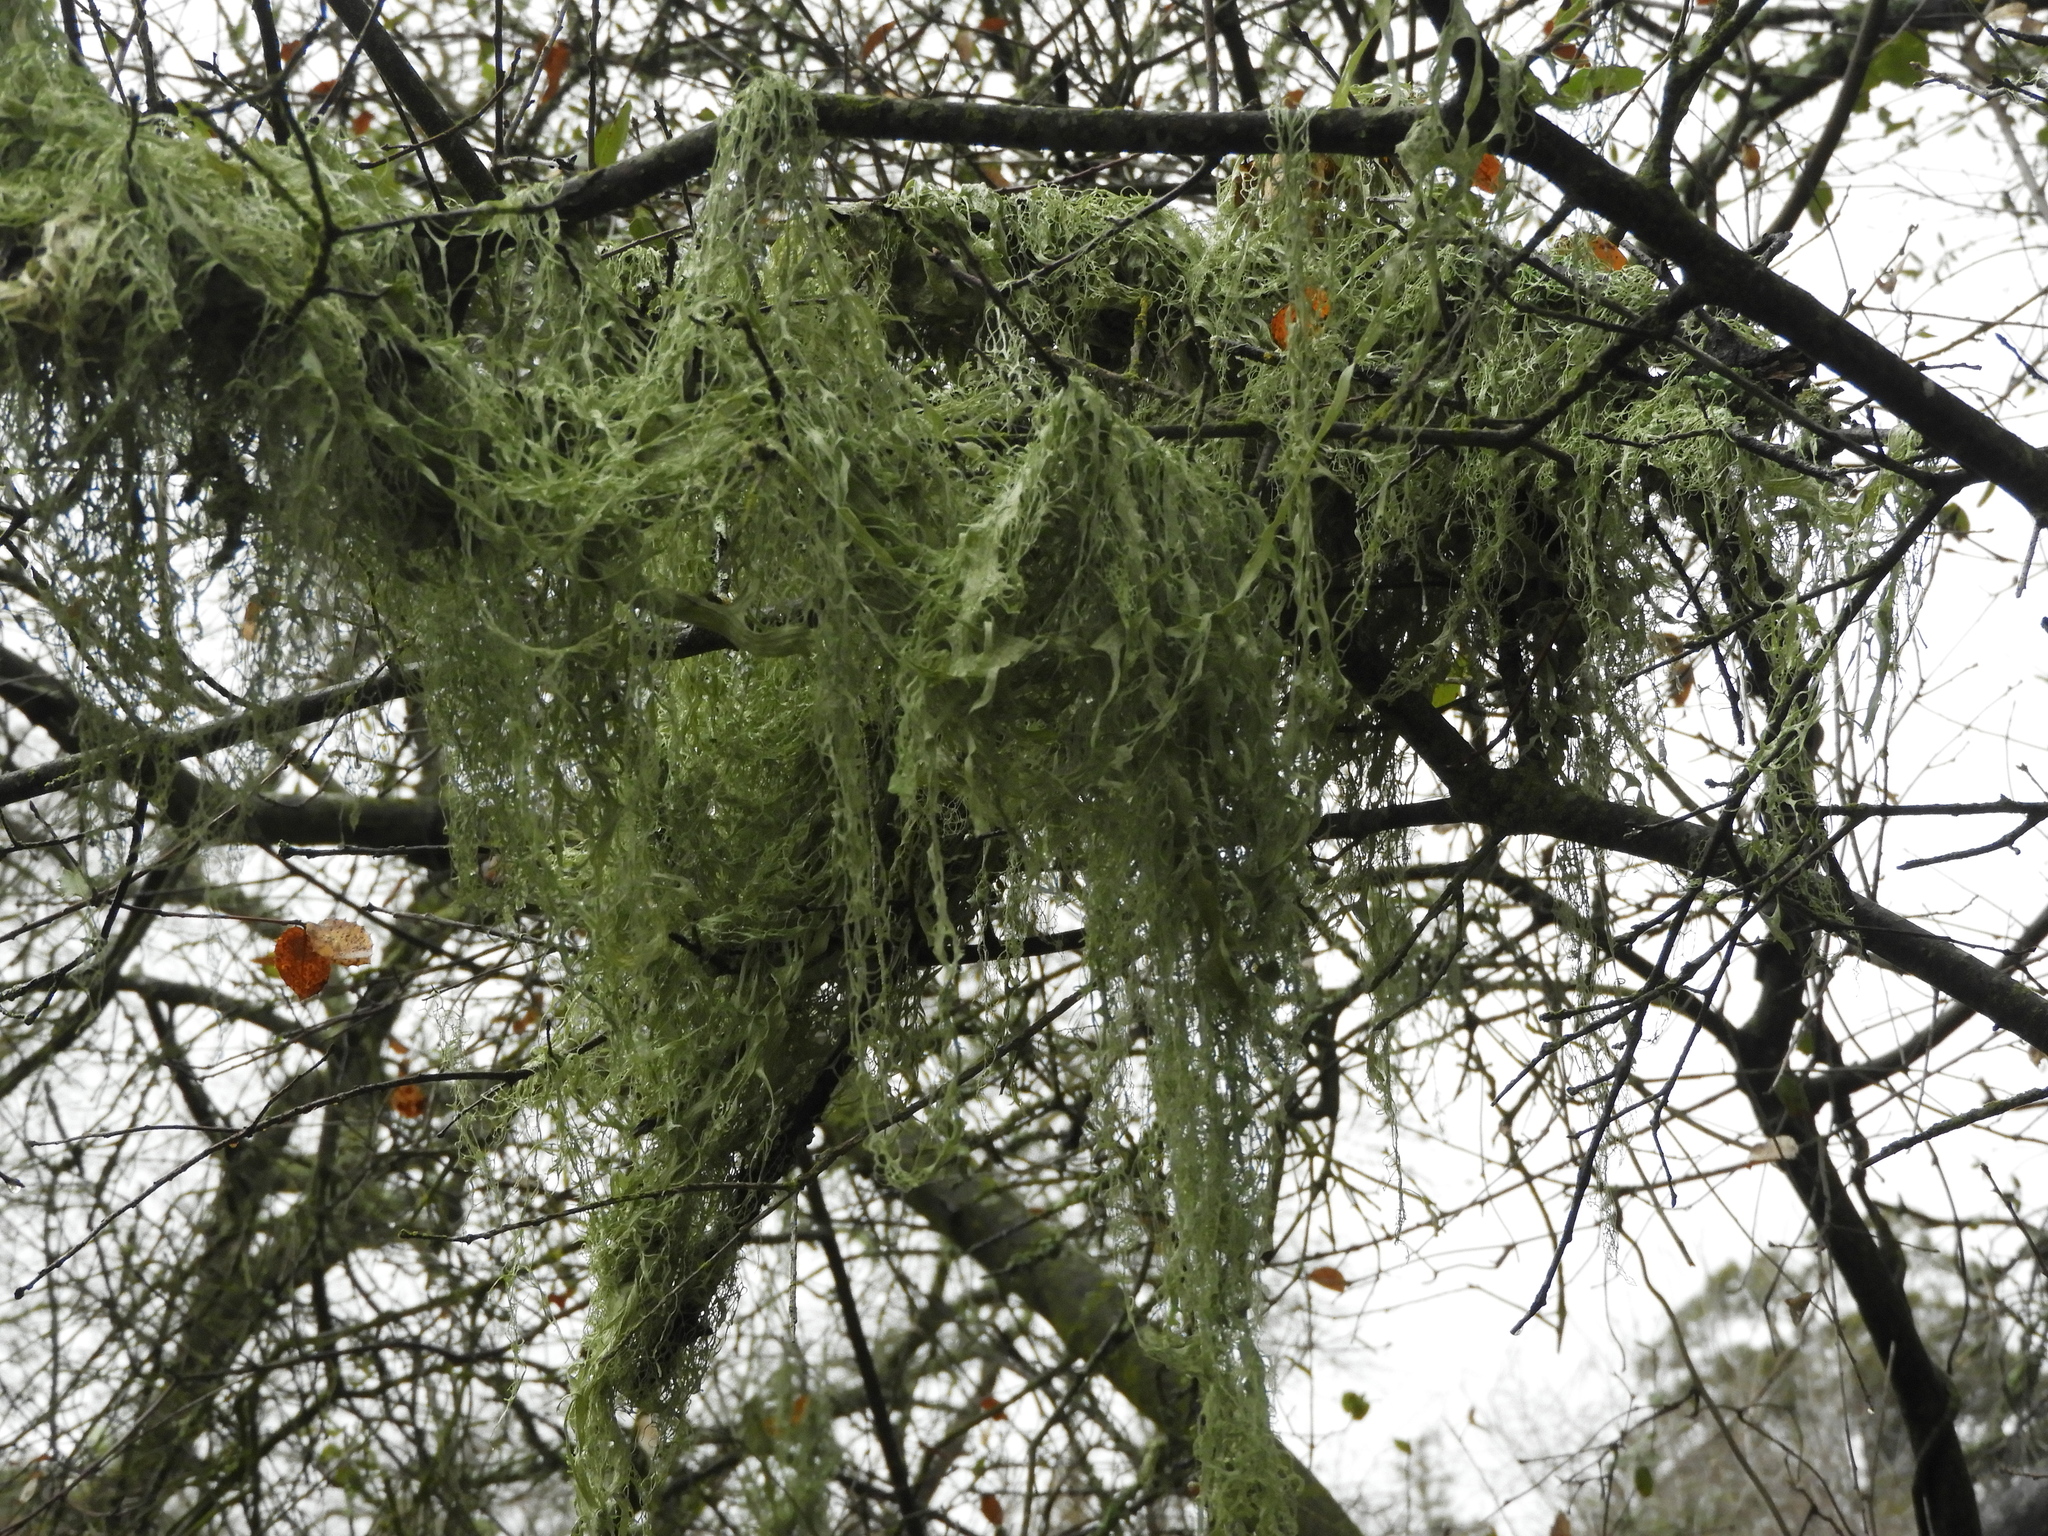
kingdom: Fungi
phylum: Ascomycota
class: Lecanoromycetes
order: Lecanorales
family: Ramalinaceae
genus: Ramalina
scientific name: Ramalina menziesii
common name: Lace lichen
